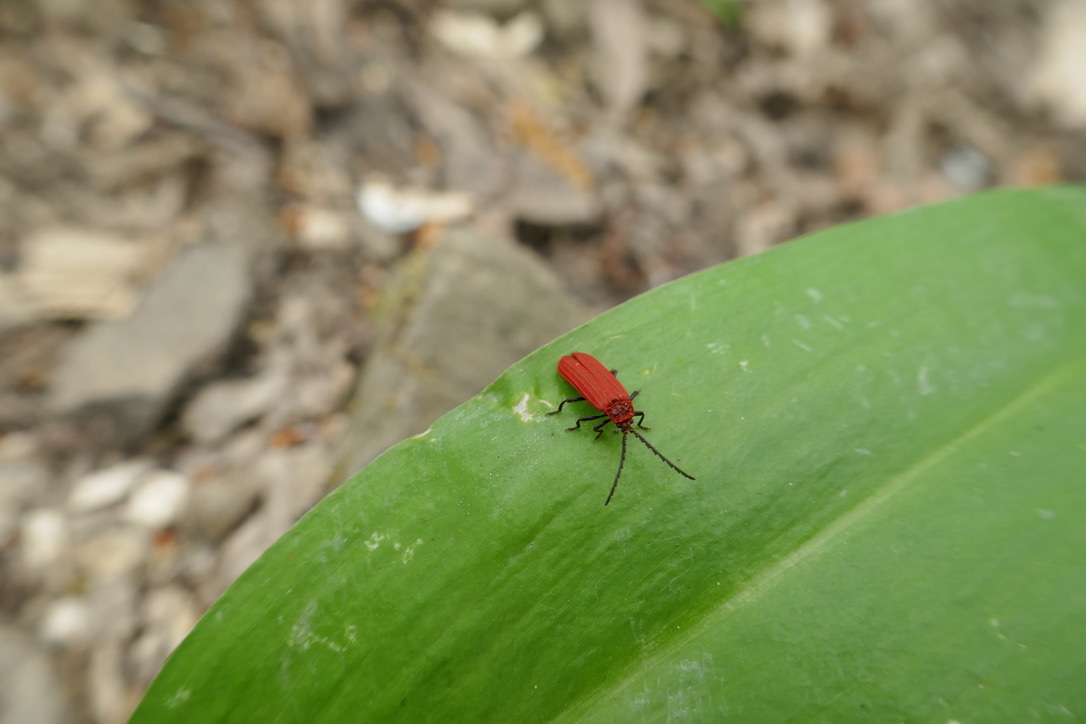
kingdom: Animalia
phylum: Arthropoda
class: Insecta
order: Coleoptera
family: Lycidae
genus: Lopheros
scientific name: Lopheros rubens
